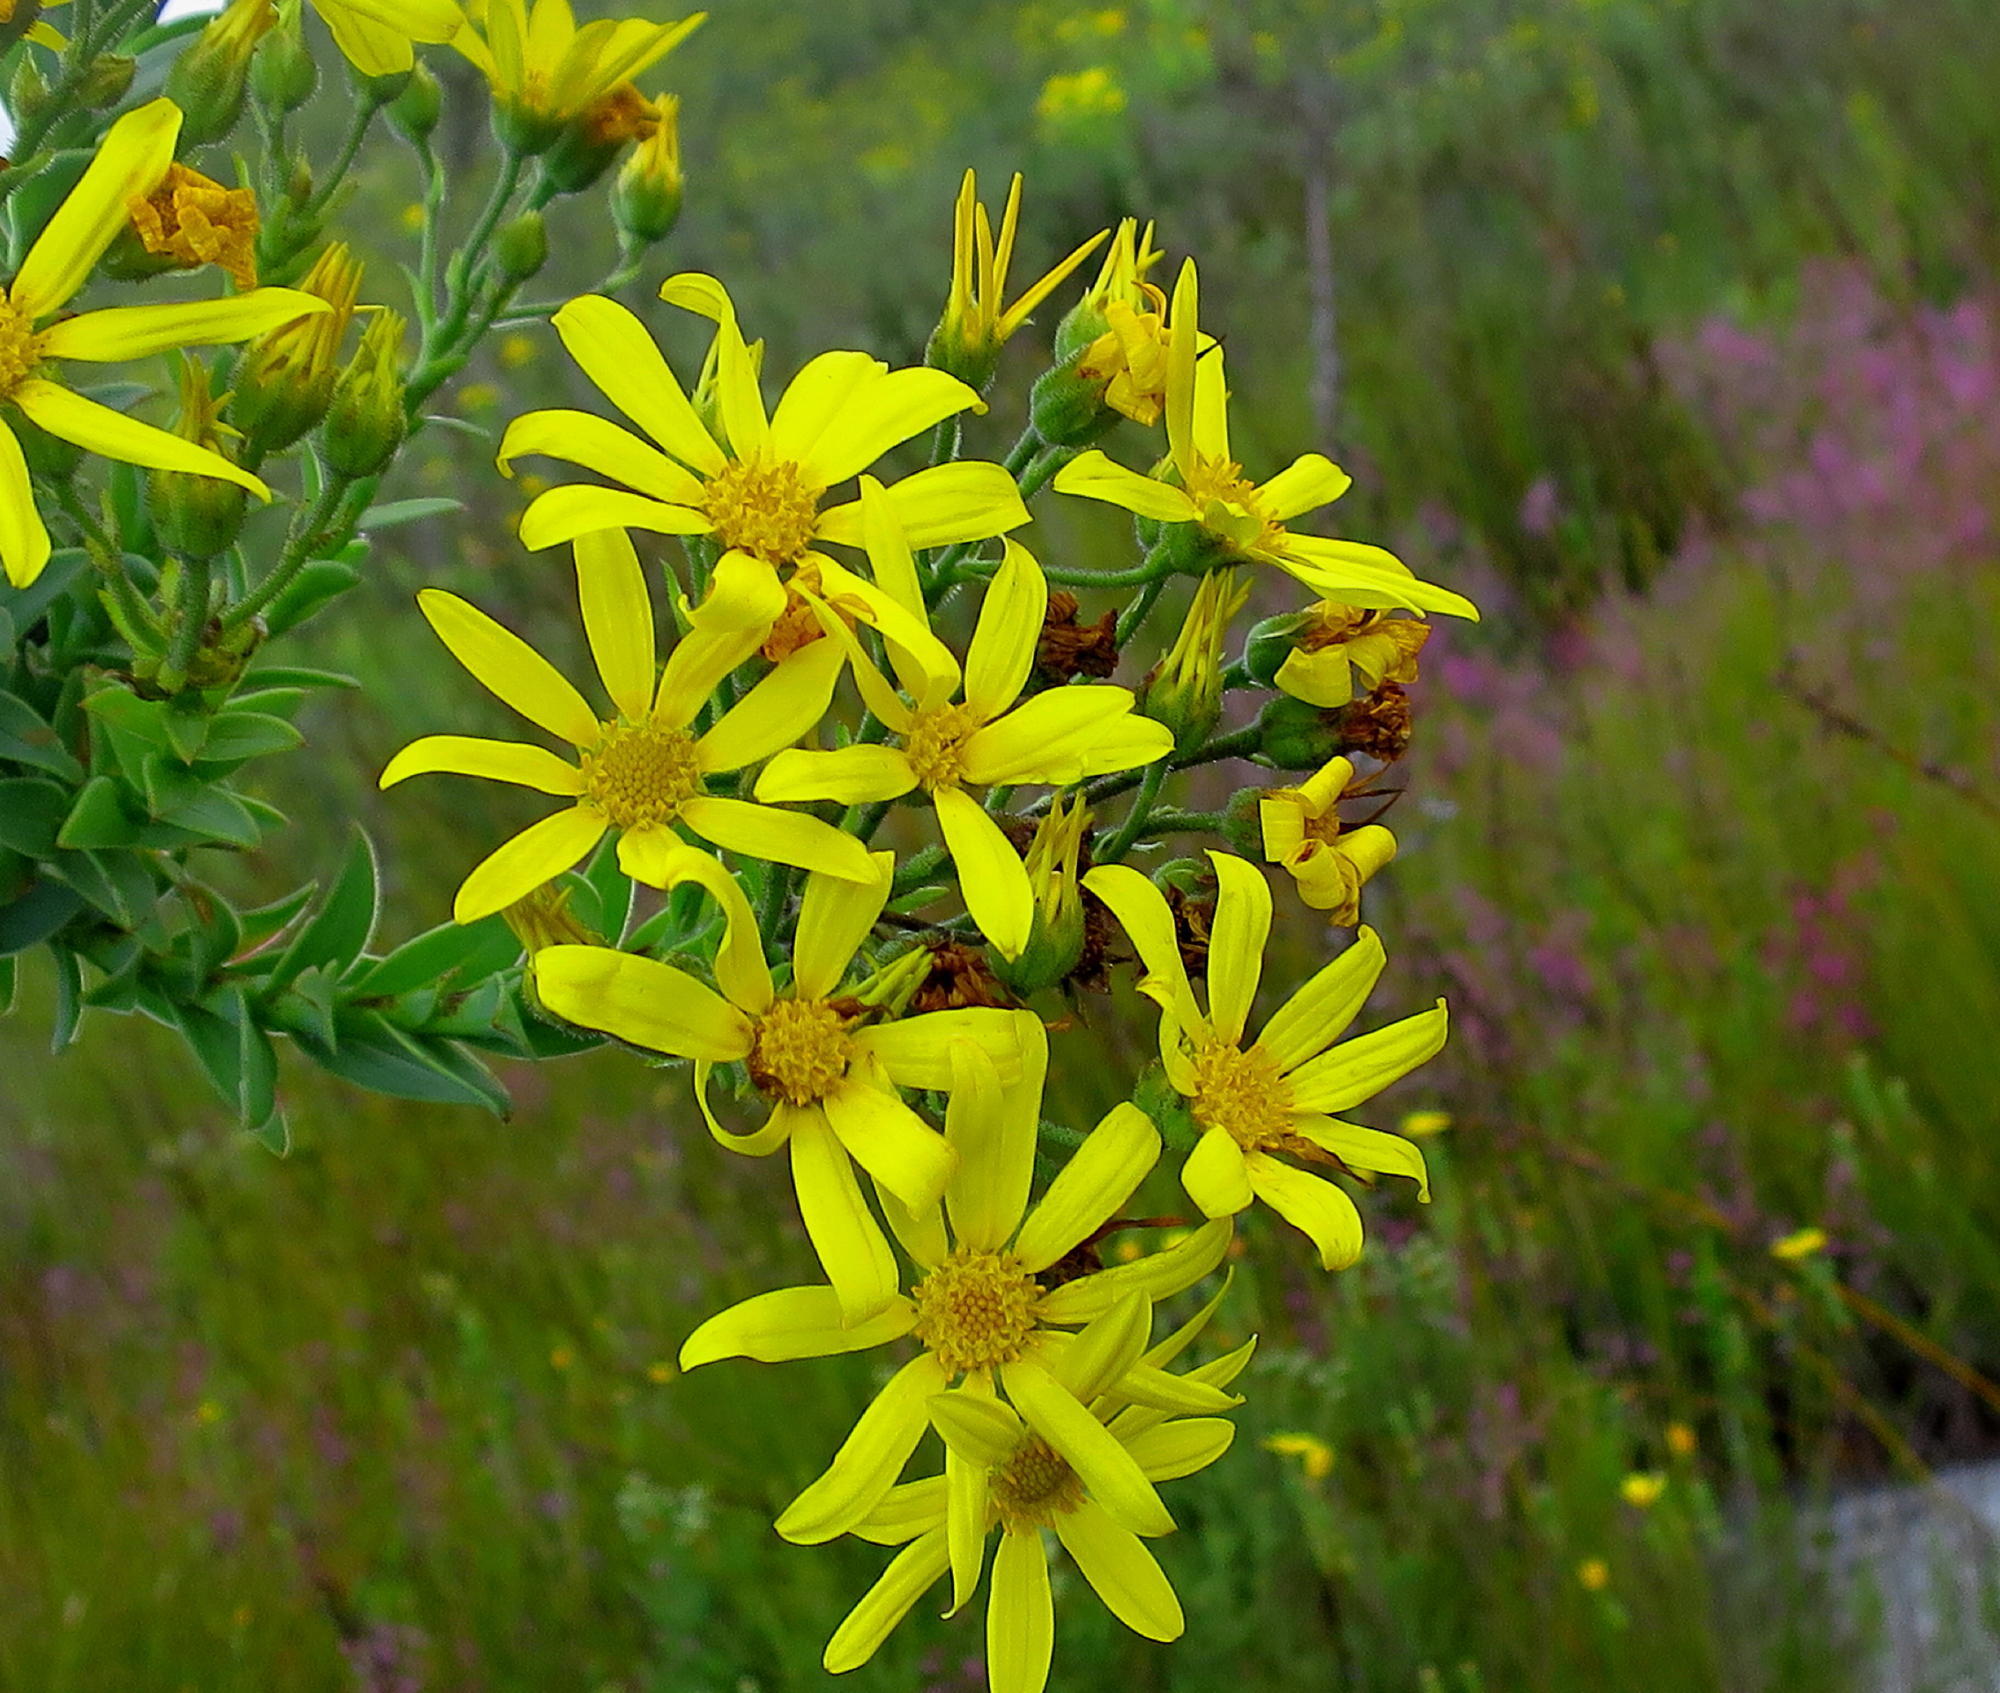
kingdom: Plantae
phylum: Tracheophyta
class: Magnoliopsida
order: Asterales
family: Asteraceae
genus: Osteospermum
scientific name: Osteospermum corymbosum
